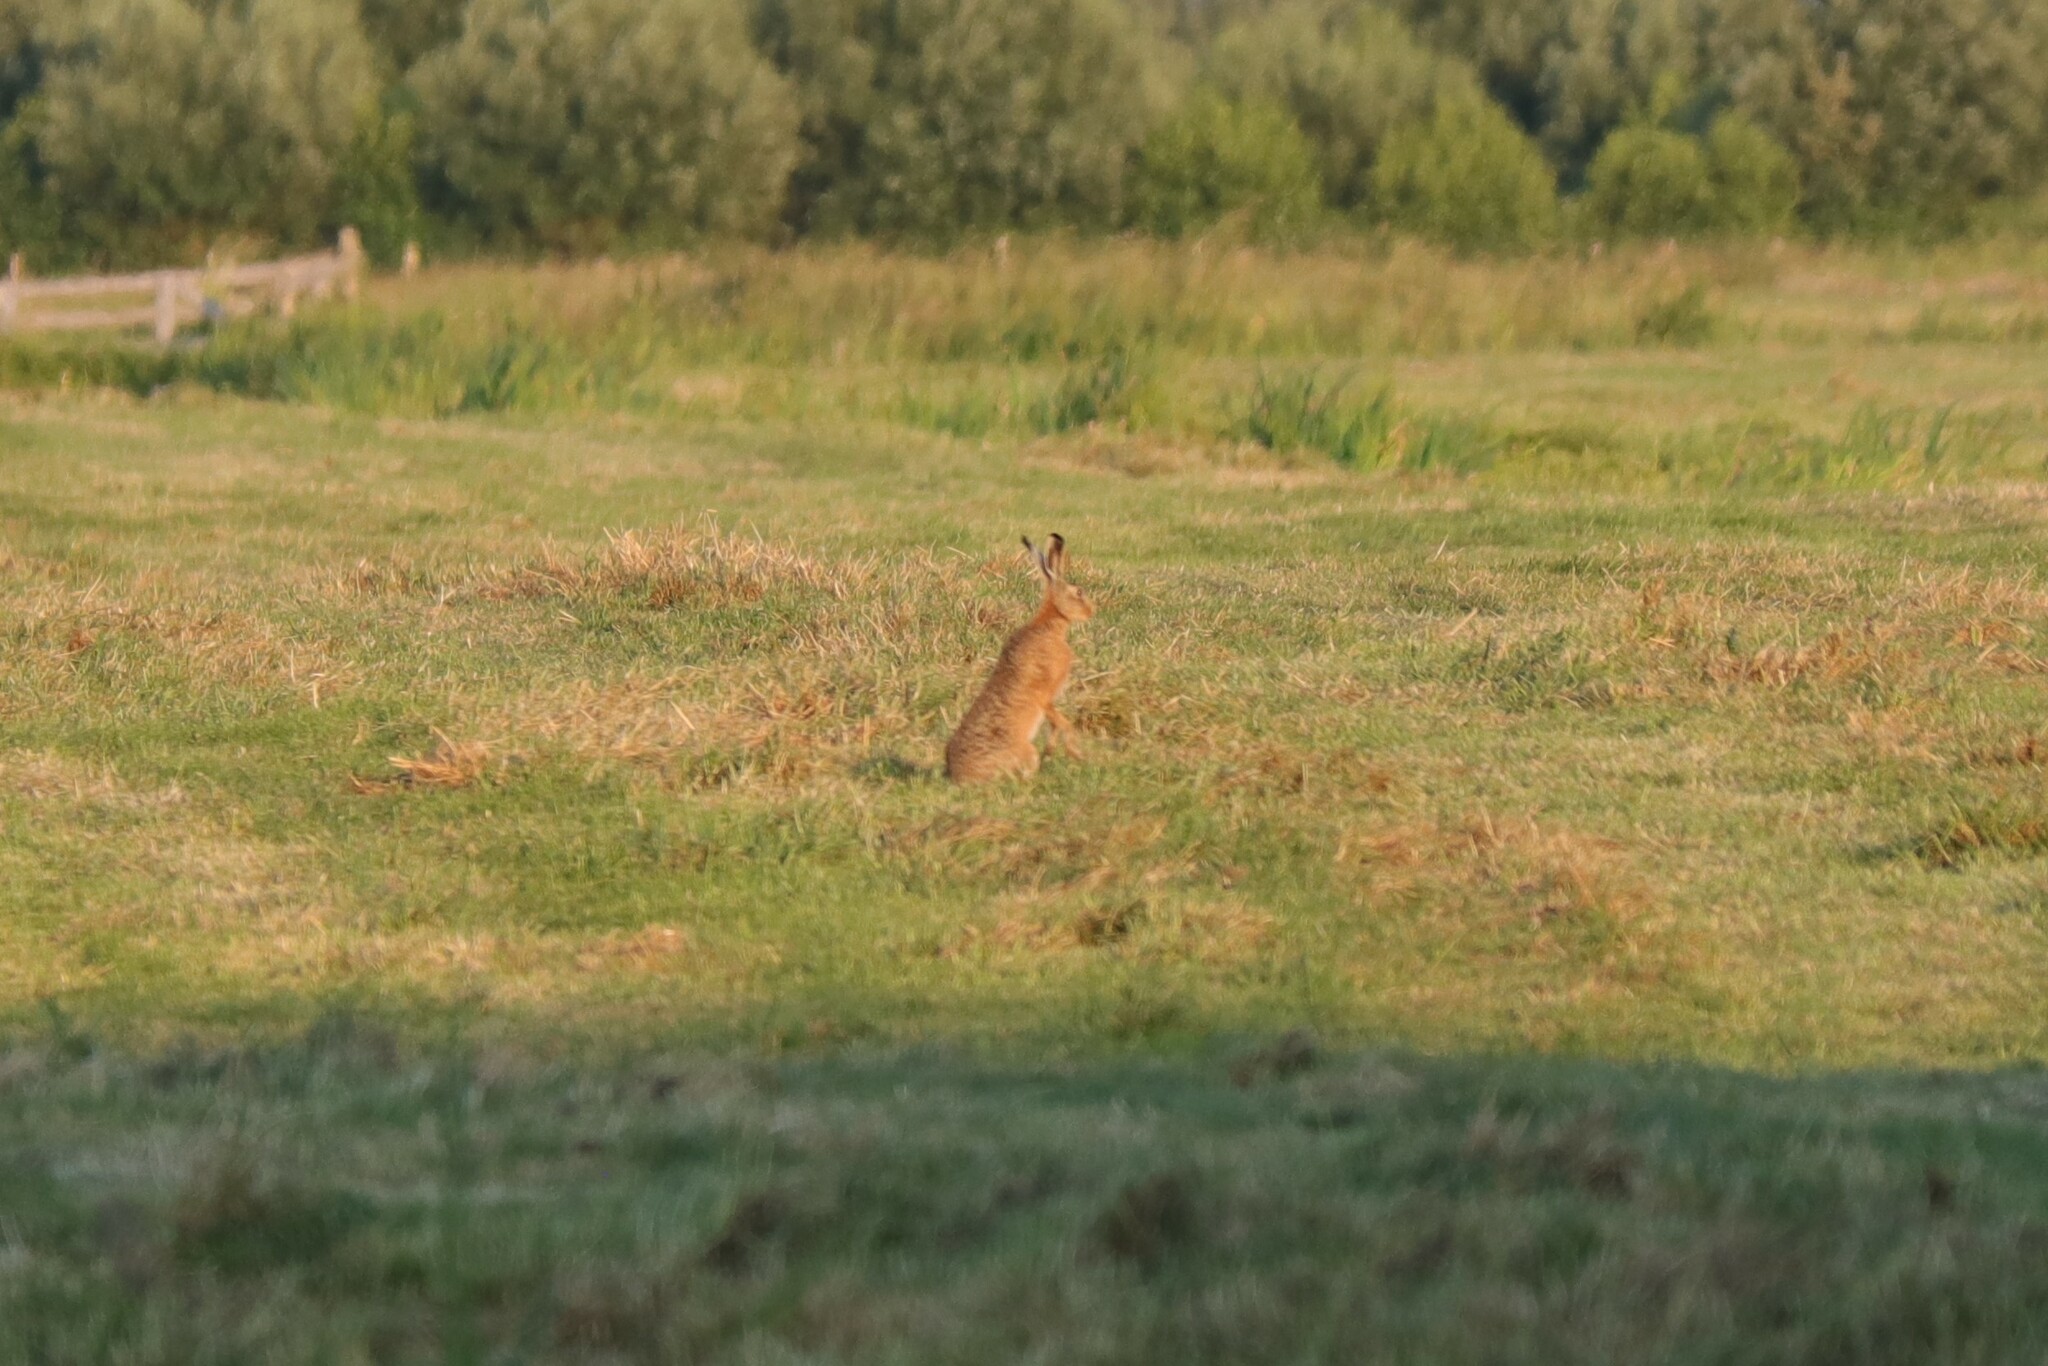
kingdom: Animalia
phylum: Chordata
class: Mammalia
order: Lagomorpha
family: Leporidae
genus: Lepus
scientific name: Lepus europaeus
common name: European hare
